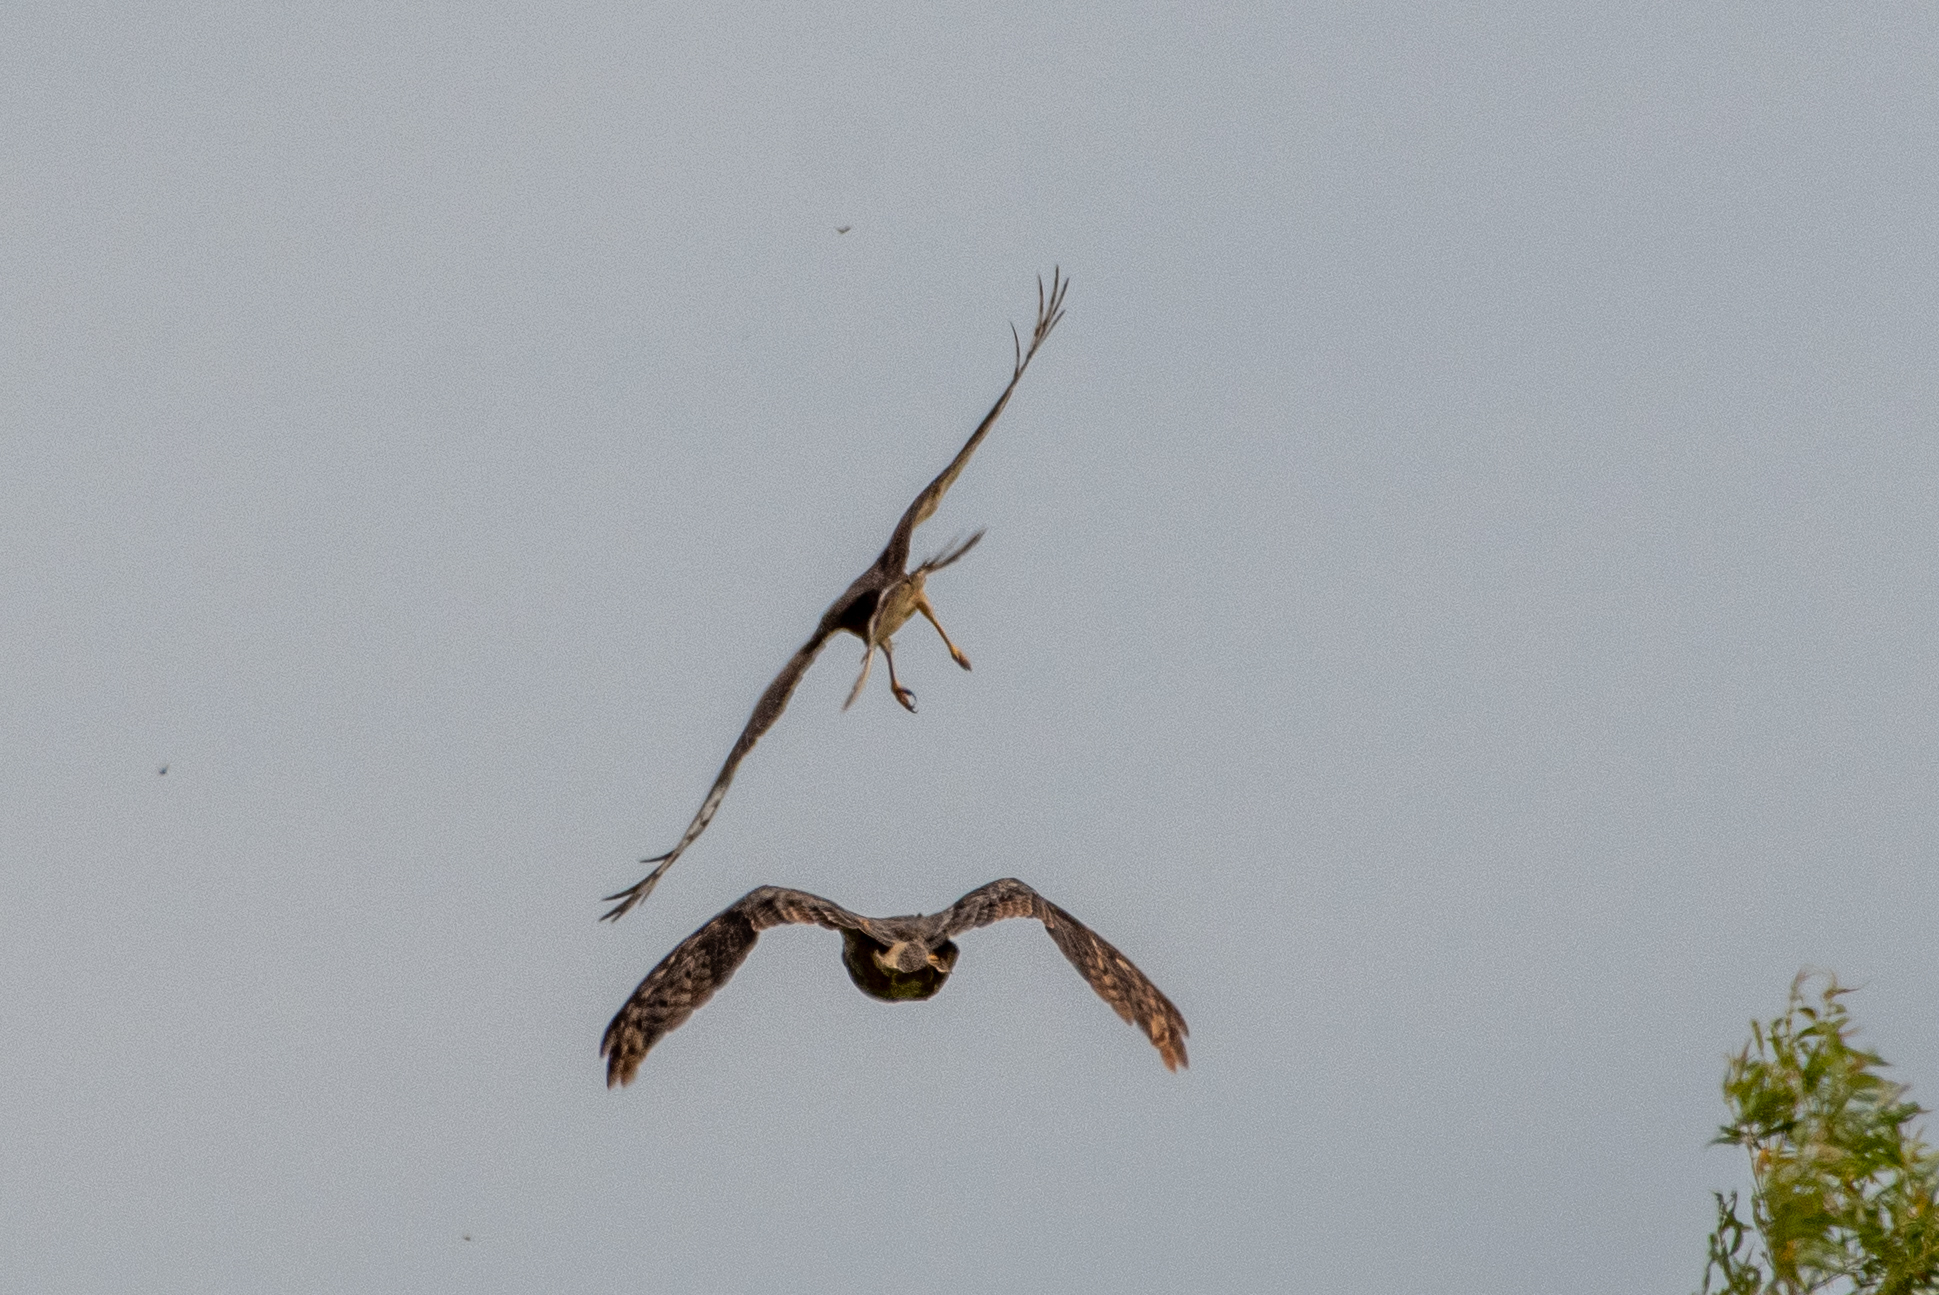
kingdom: Animalia
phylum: Chordata
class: Aves
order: Strigiformes
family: Strigidae
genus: Bubo
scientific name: Bubo virginianus
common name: Great horned owl
